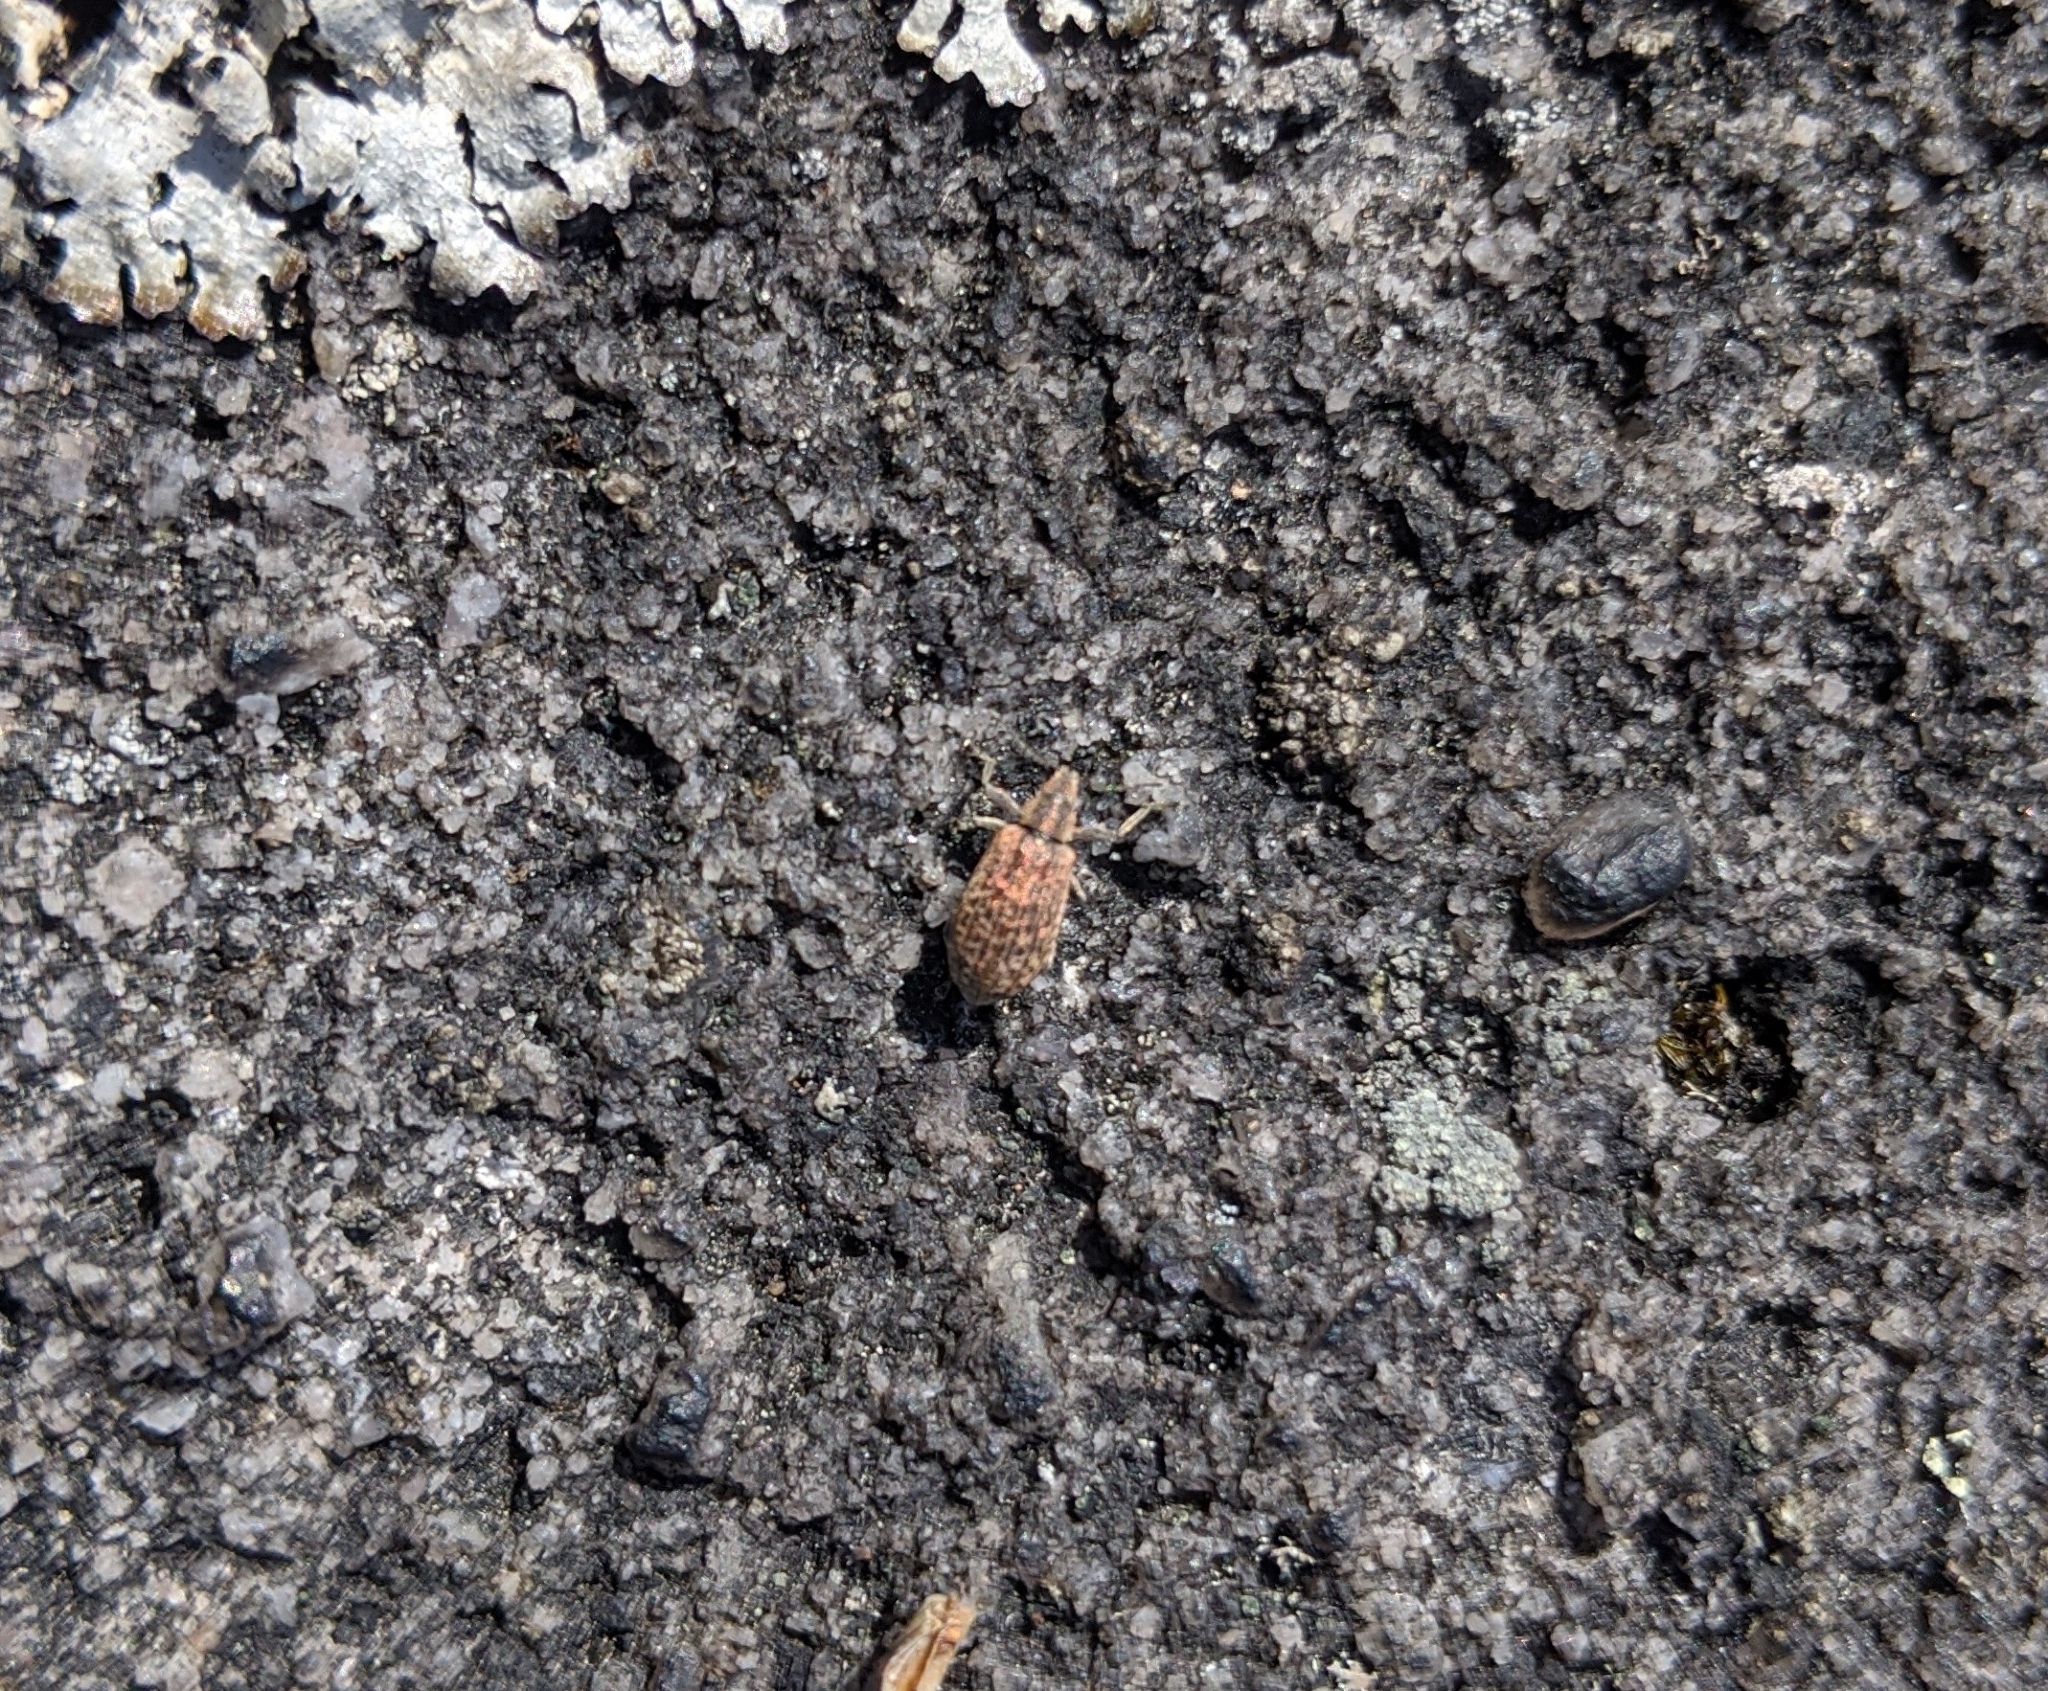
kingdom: Animalia
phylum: Arthropoda
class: Insecta
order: Coleoptera
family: Curculionidae
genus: Polydrusus
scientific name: Polydrusus cervinus
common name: Weevil
